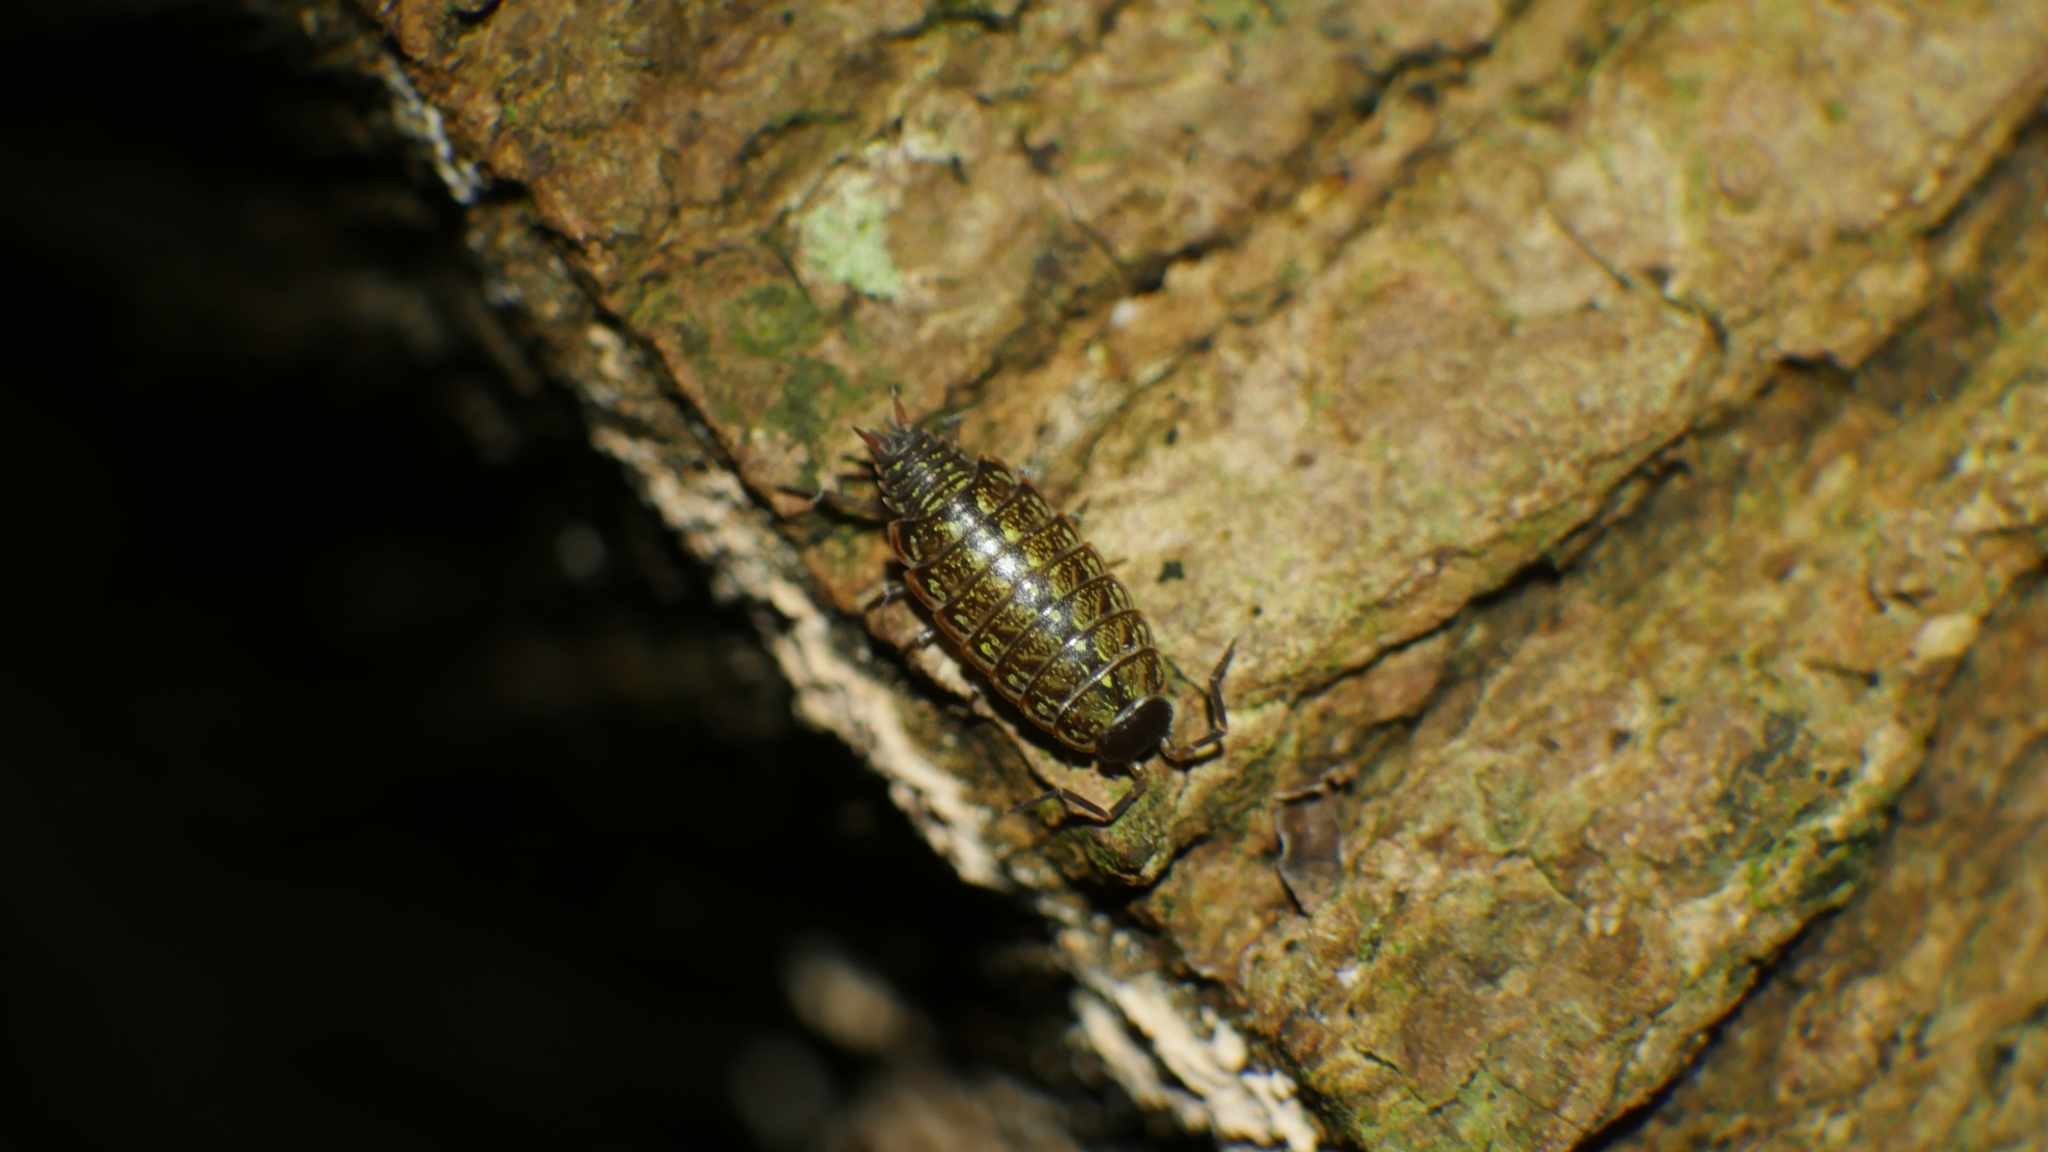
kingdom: Animalia
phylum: Arthropoda
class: Malacostraca
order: Isopoda
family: Philosciidae
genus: Philoscia
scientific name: Philoscia muscorum
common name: Common striped woodlouse
